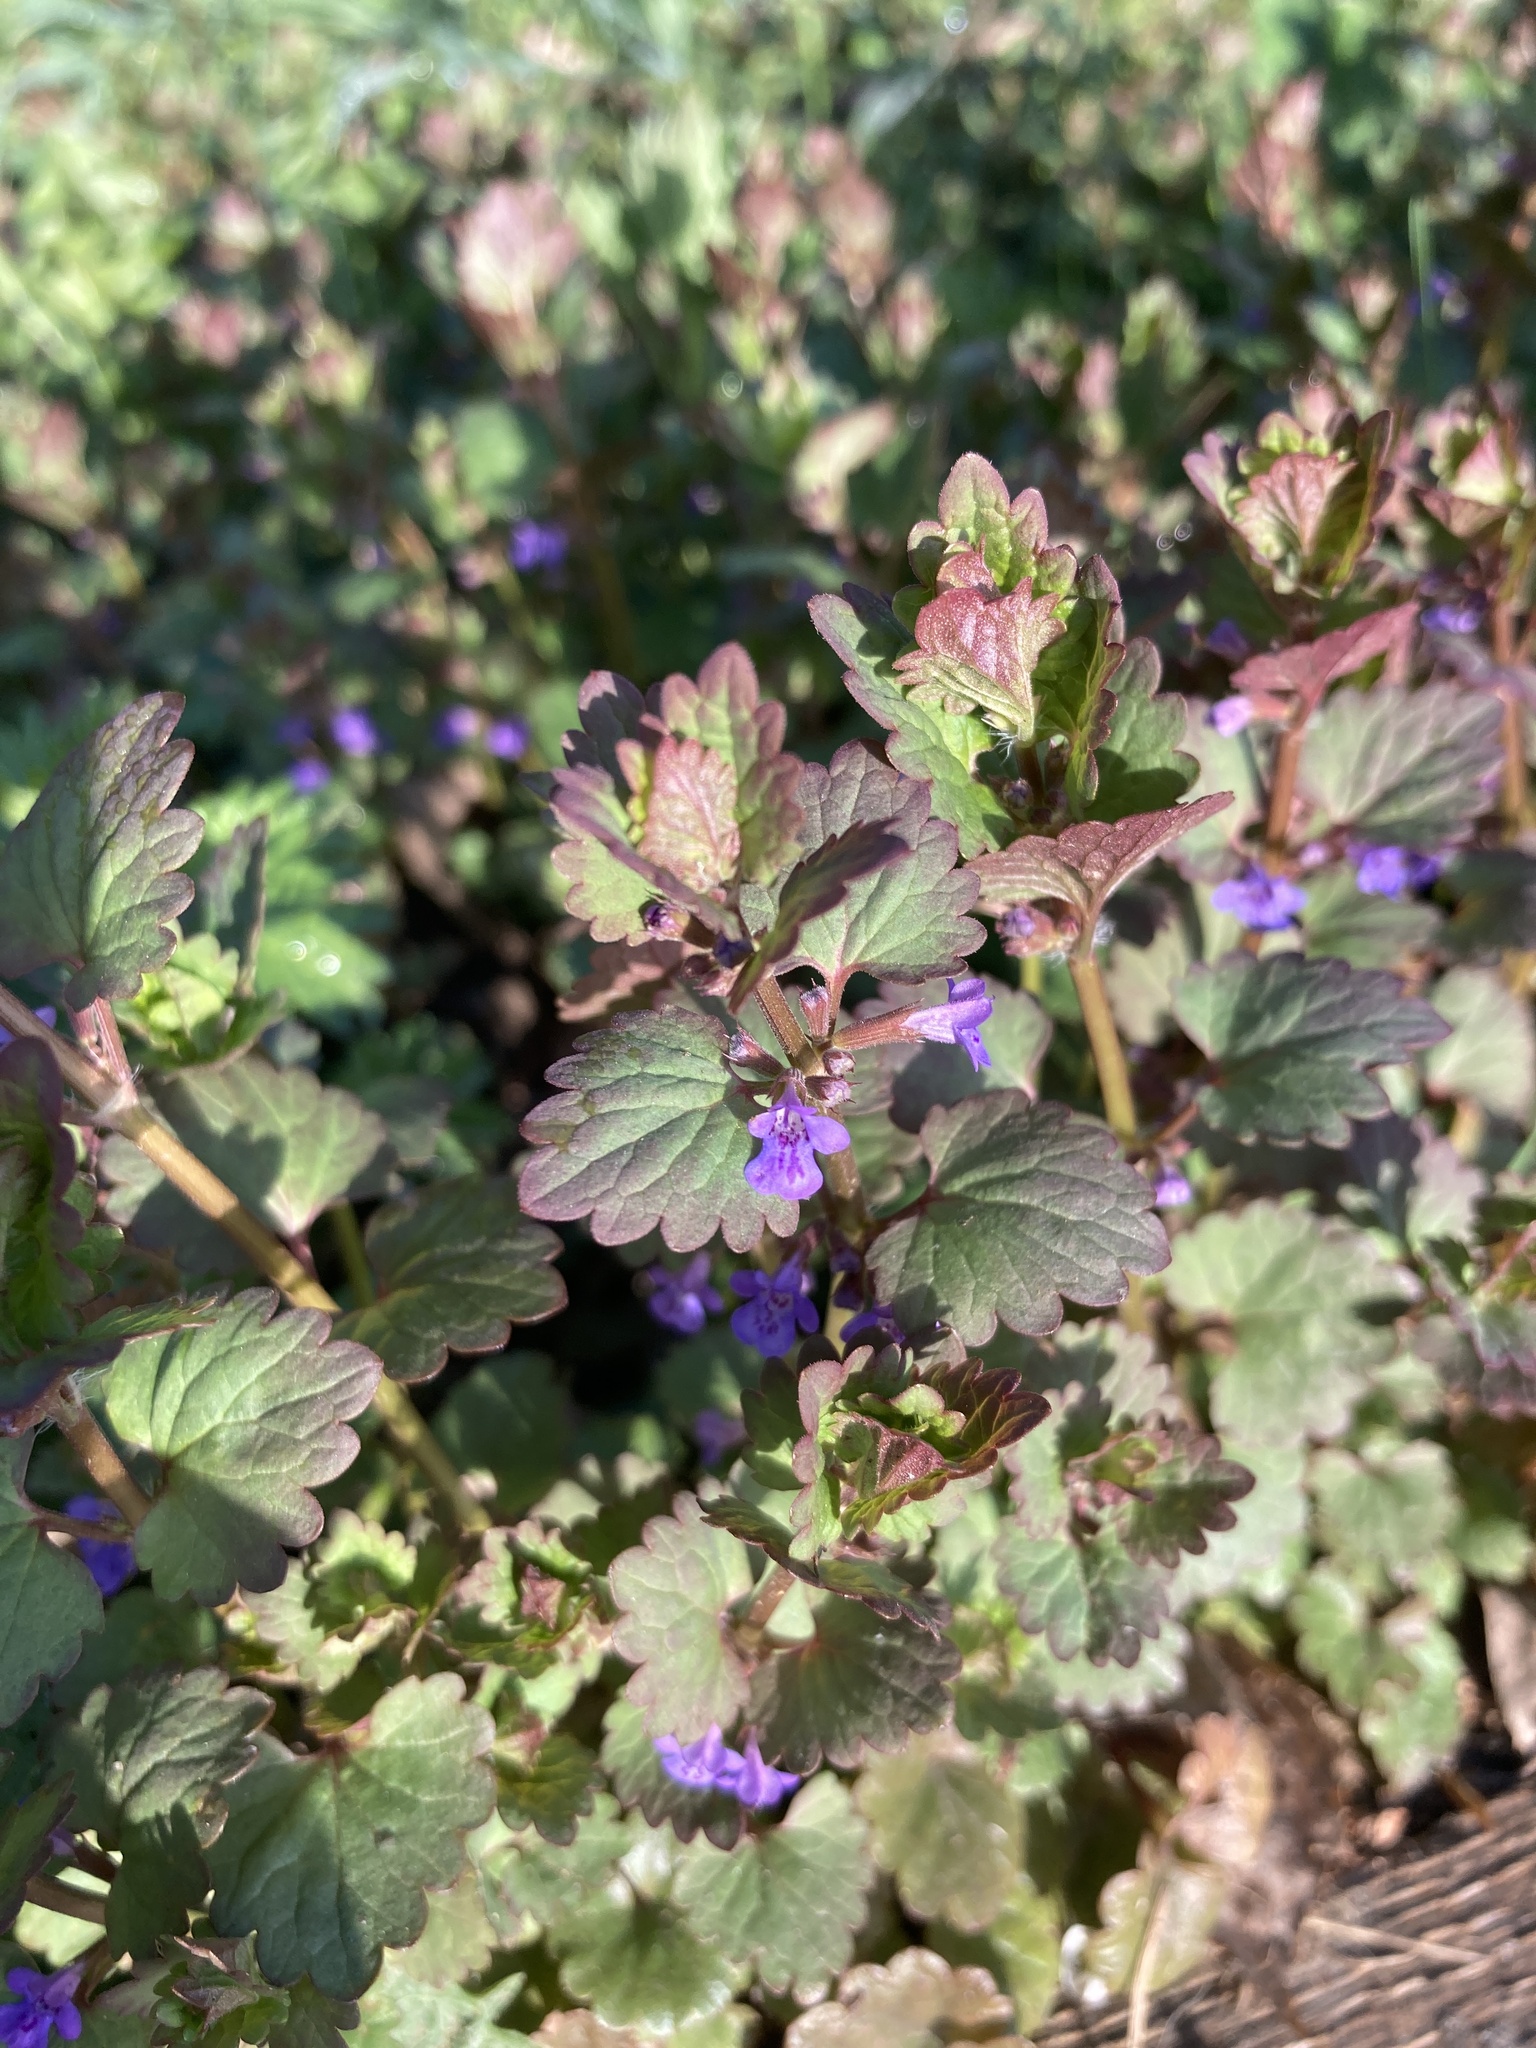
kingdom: Plantae
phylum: Tracheophyta
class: Magnoliopsida
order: Lamiales
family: Lamiaceae
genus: Glechoma
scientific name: Glechoma hederacea
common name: Ground ivy
